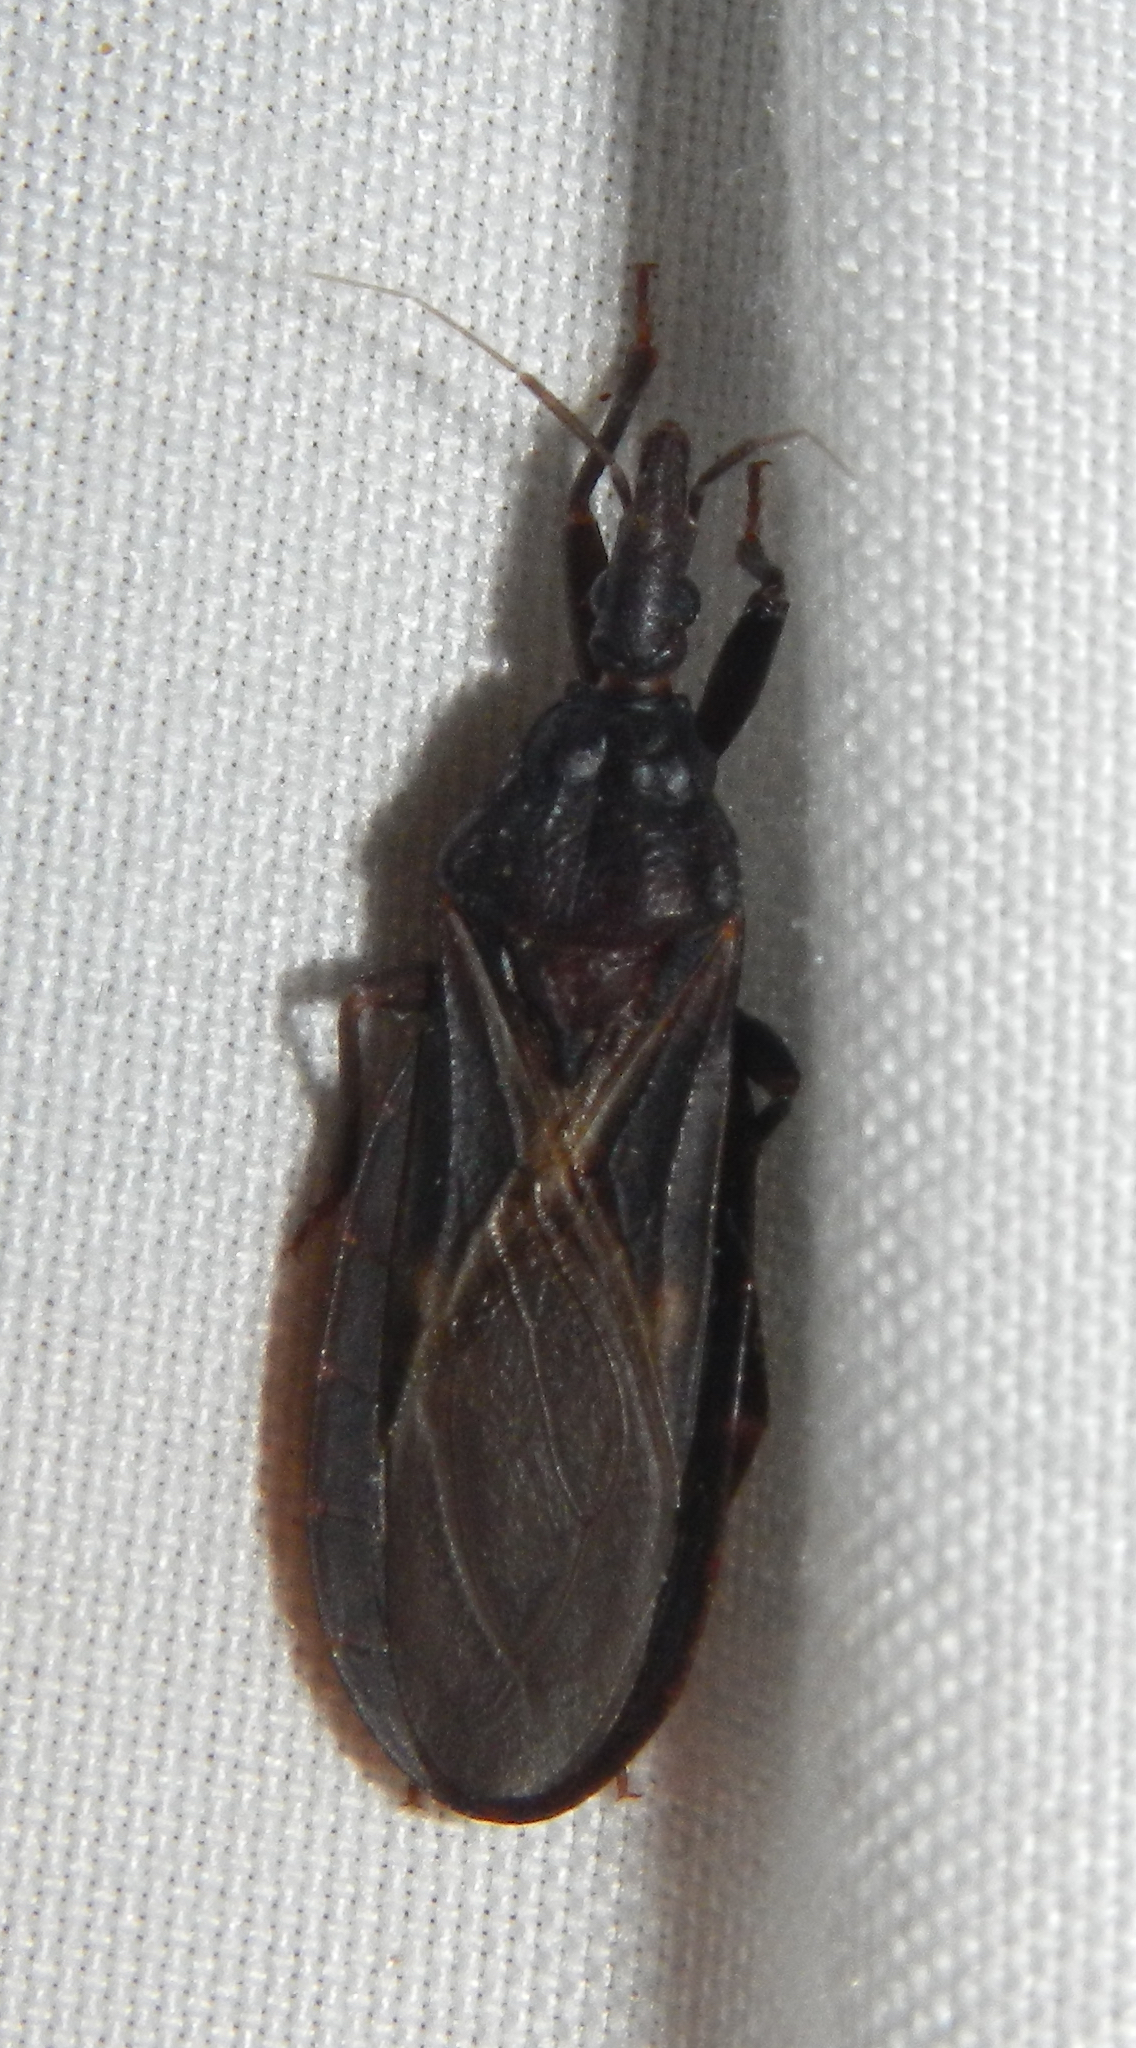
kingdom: Animalia
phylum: Arthropoda
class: Insecta
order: Hemiptera
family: Reduviidae
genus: Triatoma
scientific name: Triatoma protracta
